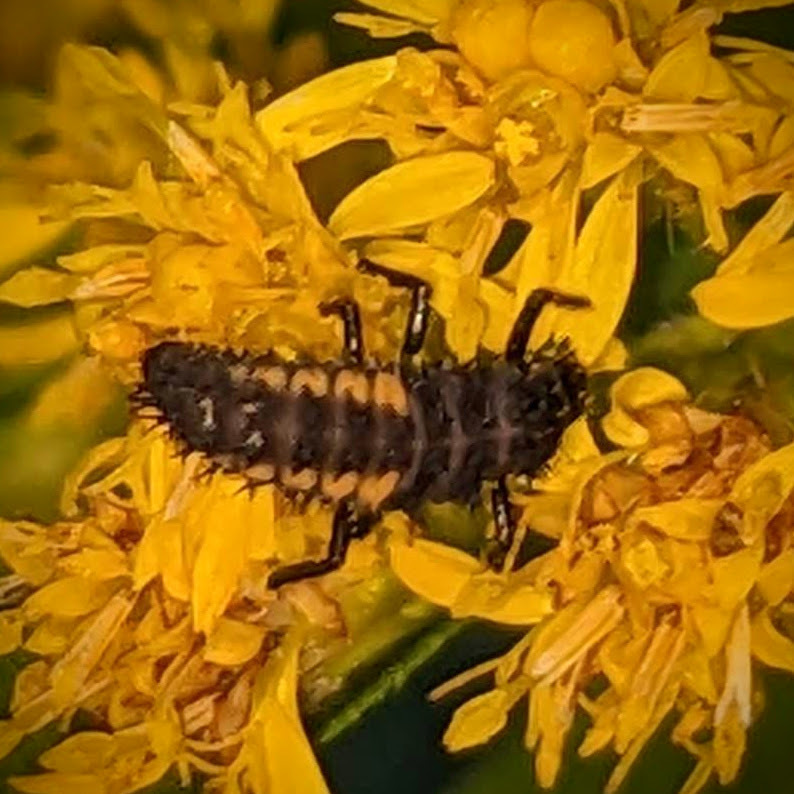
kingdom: Animalia
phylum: Arthropoda
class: Insecta
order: Coleoptera
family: Coccinellidae
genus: Harmonia
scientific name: Harmonia axyridis
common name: Harlequin ladybird
